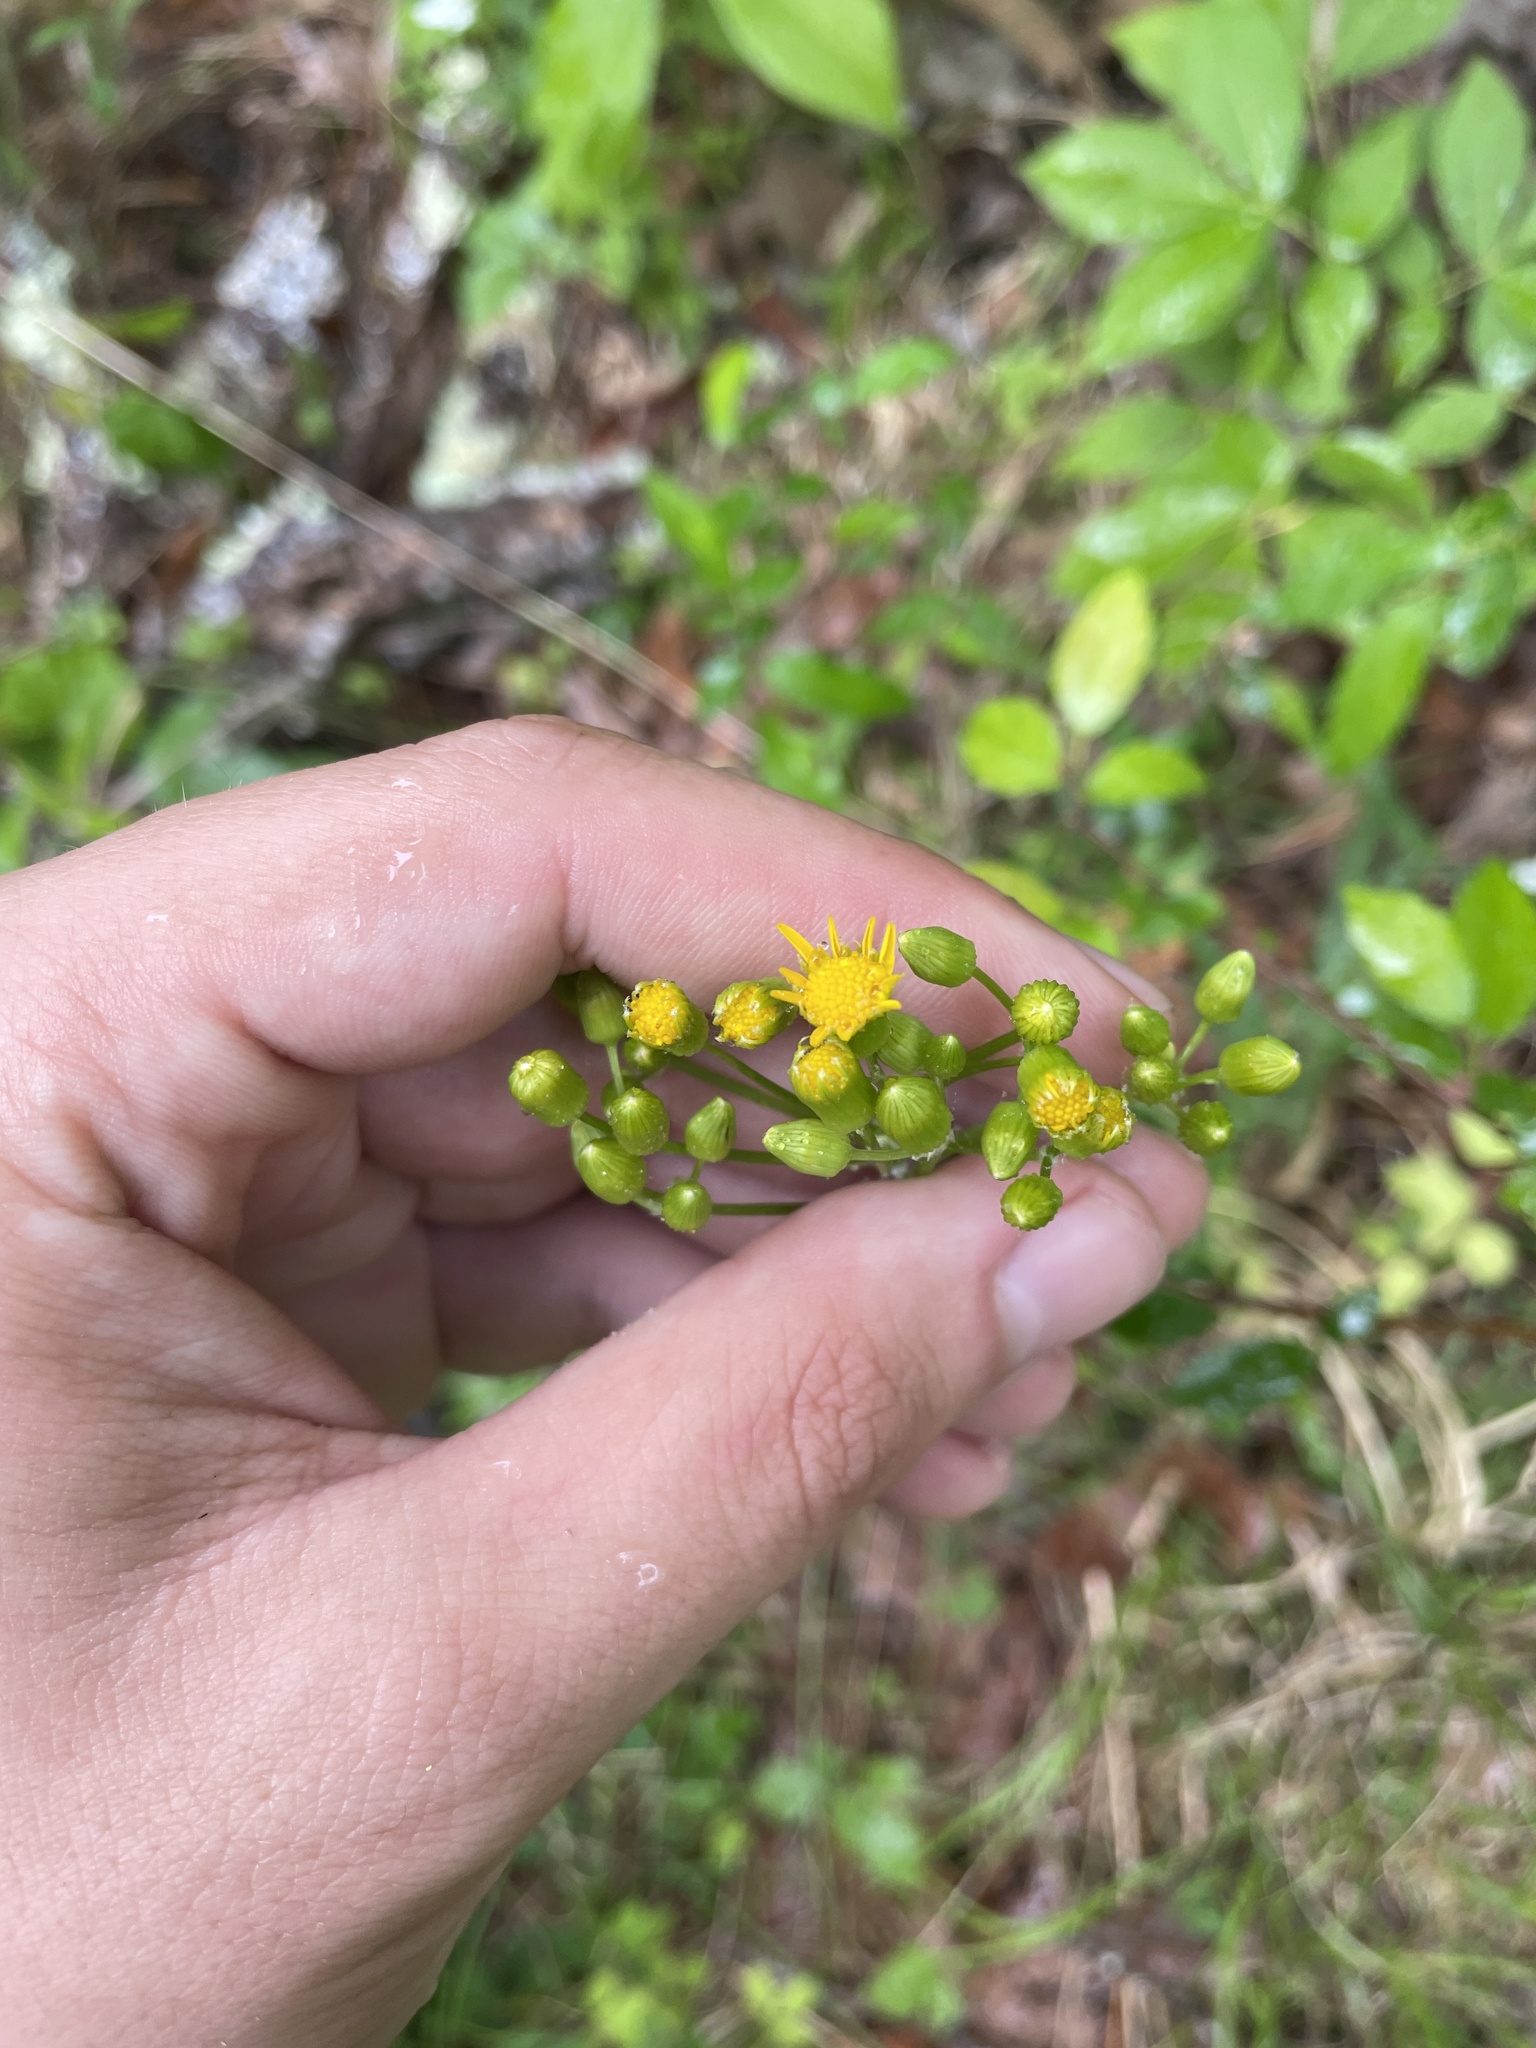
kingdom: Plantae
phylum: Tracheophyta
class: Magnoliopsida
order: Asterales
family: Asteraceae
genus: Packera
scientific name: Packera anonyma
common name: Small ragwort
